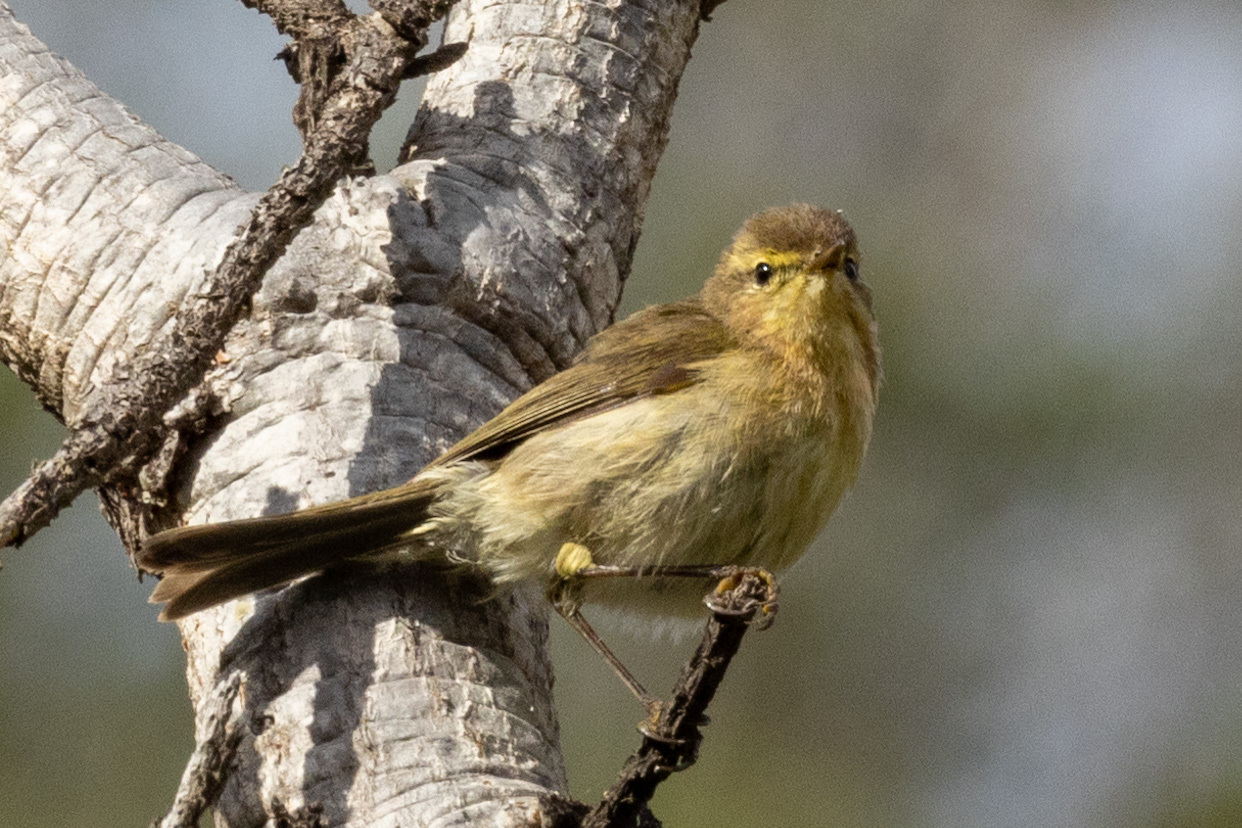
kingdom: Animalia
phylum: Chordata
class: Aves
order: Passeriformes
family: Phylloscopidae
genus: Phylloscopus
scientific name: Phylloscopus canariensis
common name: Canary islands chiffchaff
